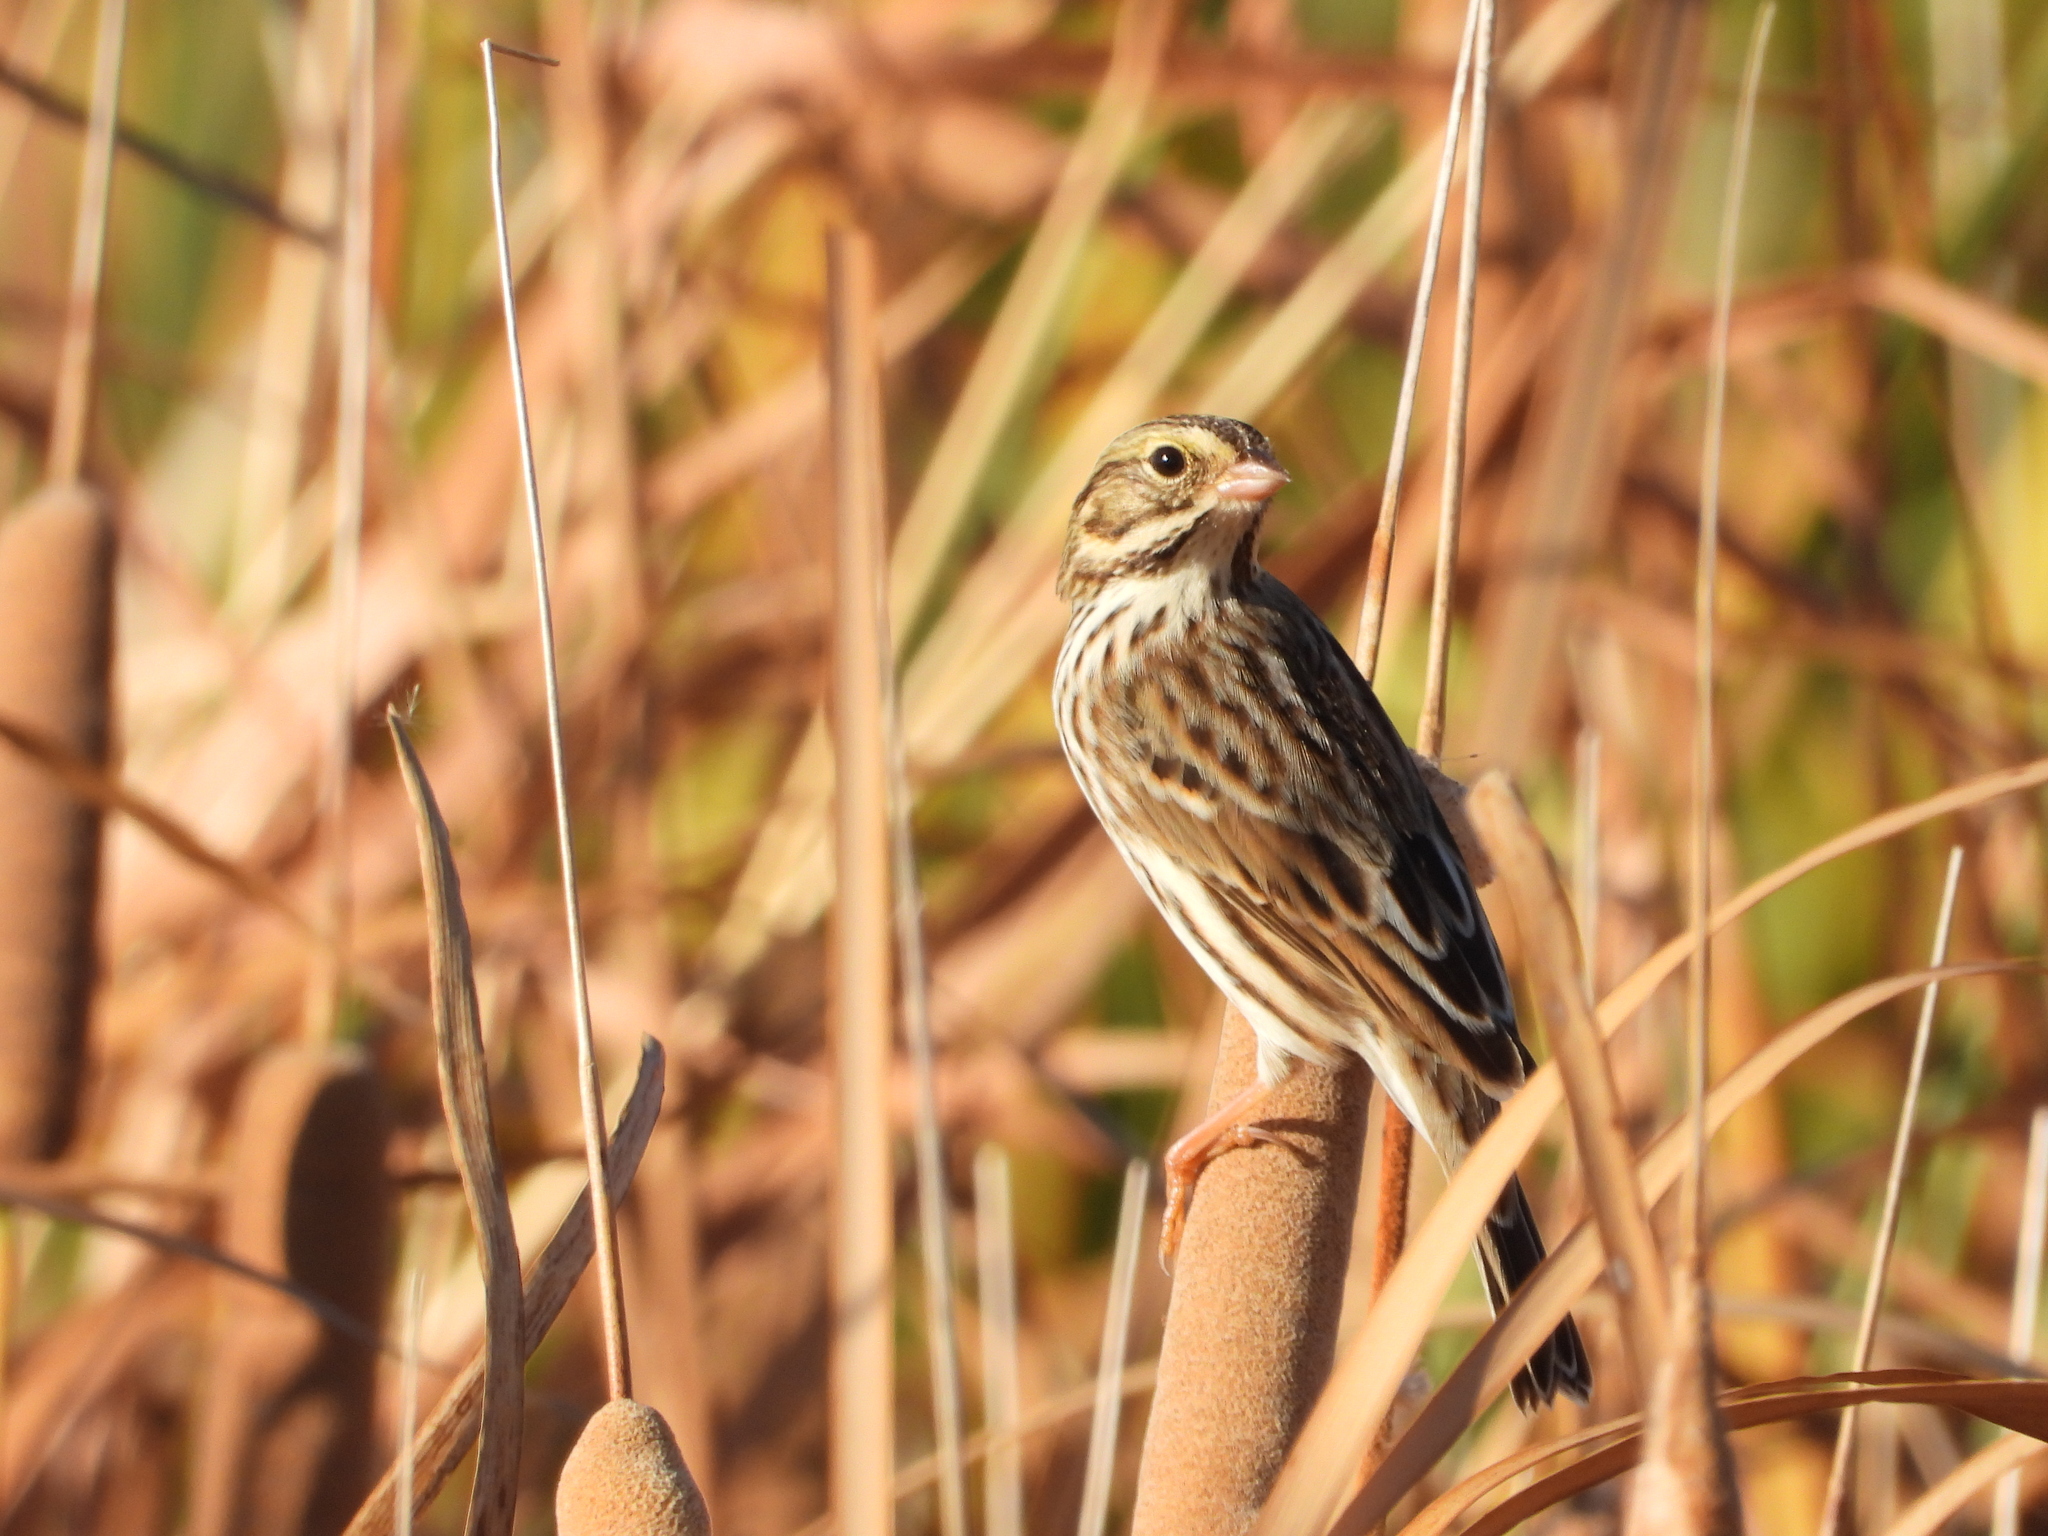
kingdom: Animalia
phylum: Chordata
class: Aves
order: Passeriformes
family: Passerellidae
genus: Passerculus
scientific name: Passerculus sandwichensis
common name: Savannah sparrow
